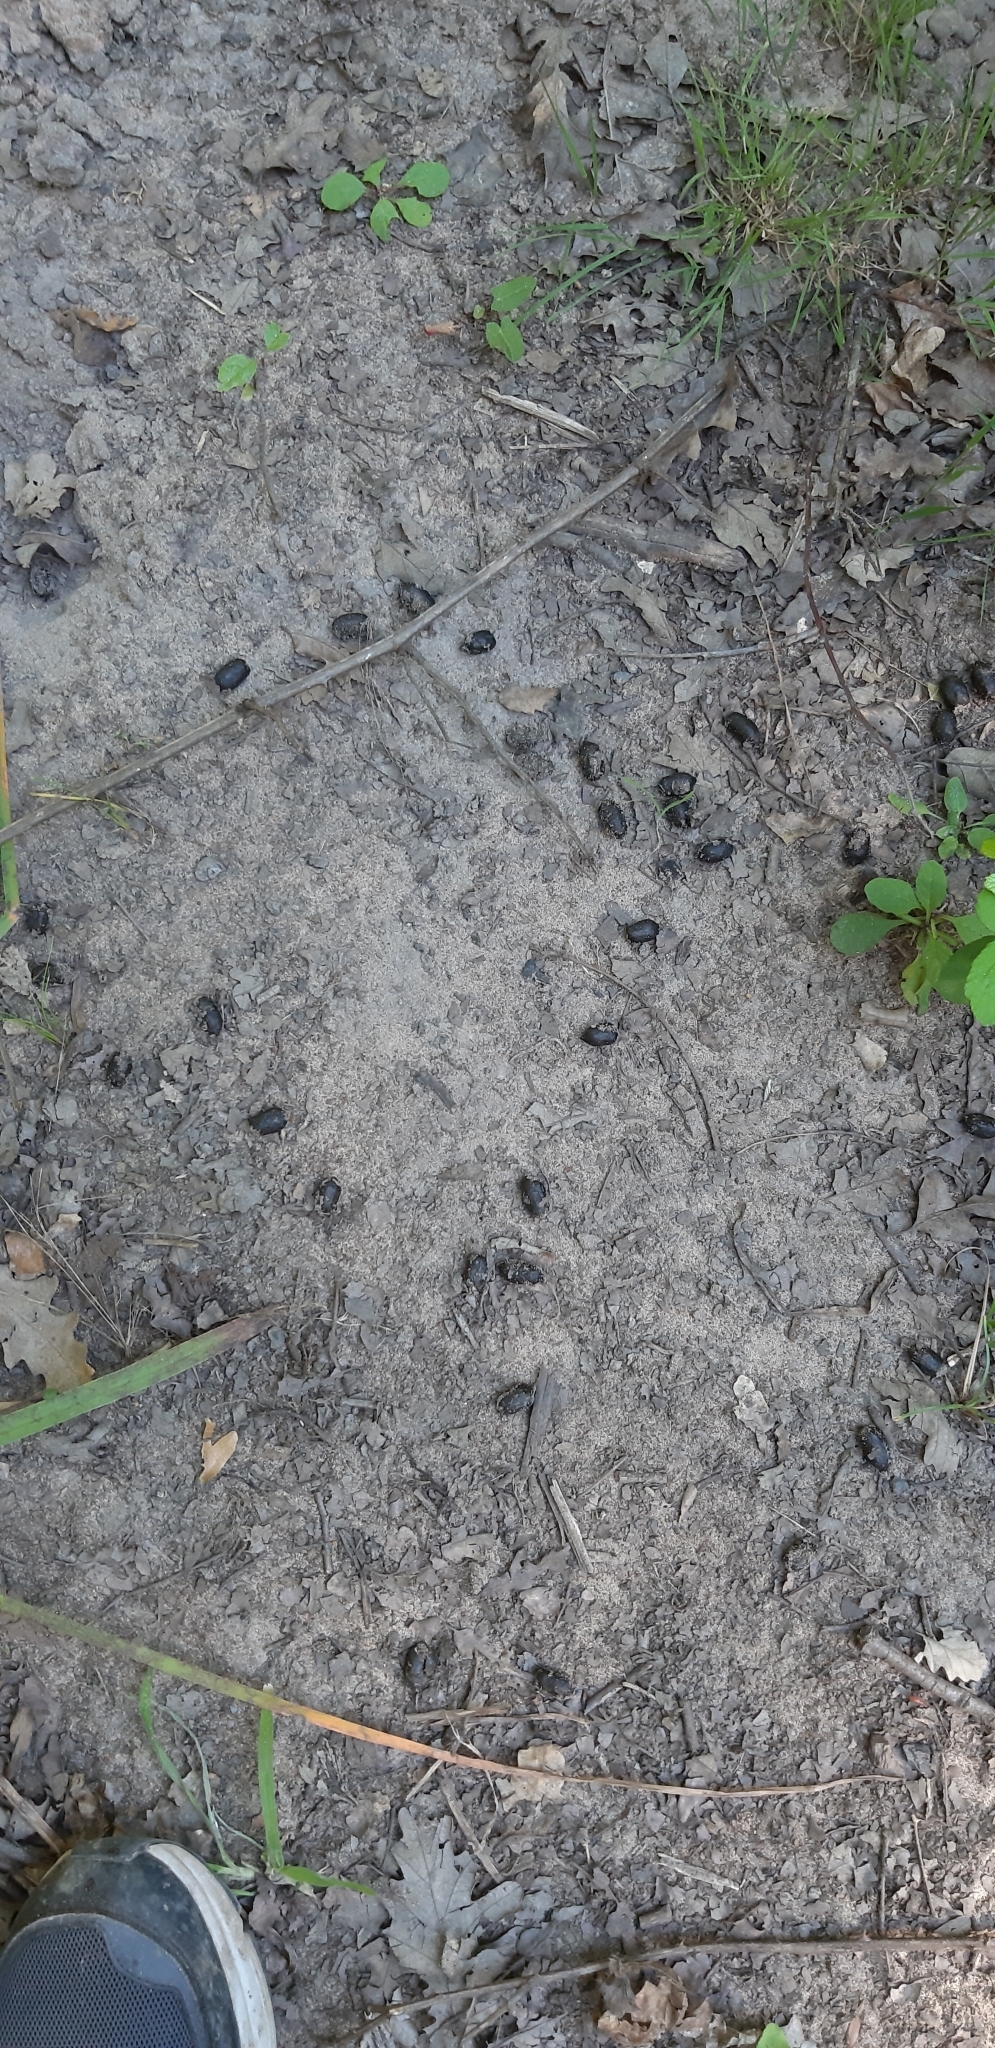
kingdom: Animalia
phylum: Chordata
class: Mammalia
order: Artiodactyla
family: Cervidae
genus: Dama
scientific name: Dama dama
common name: Fallow deer
